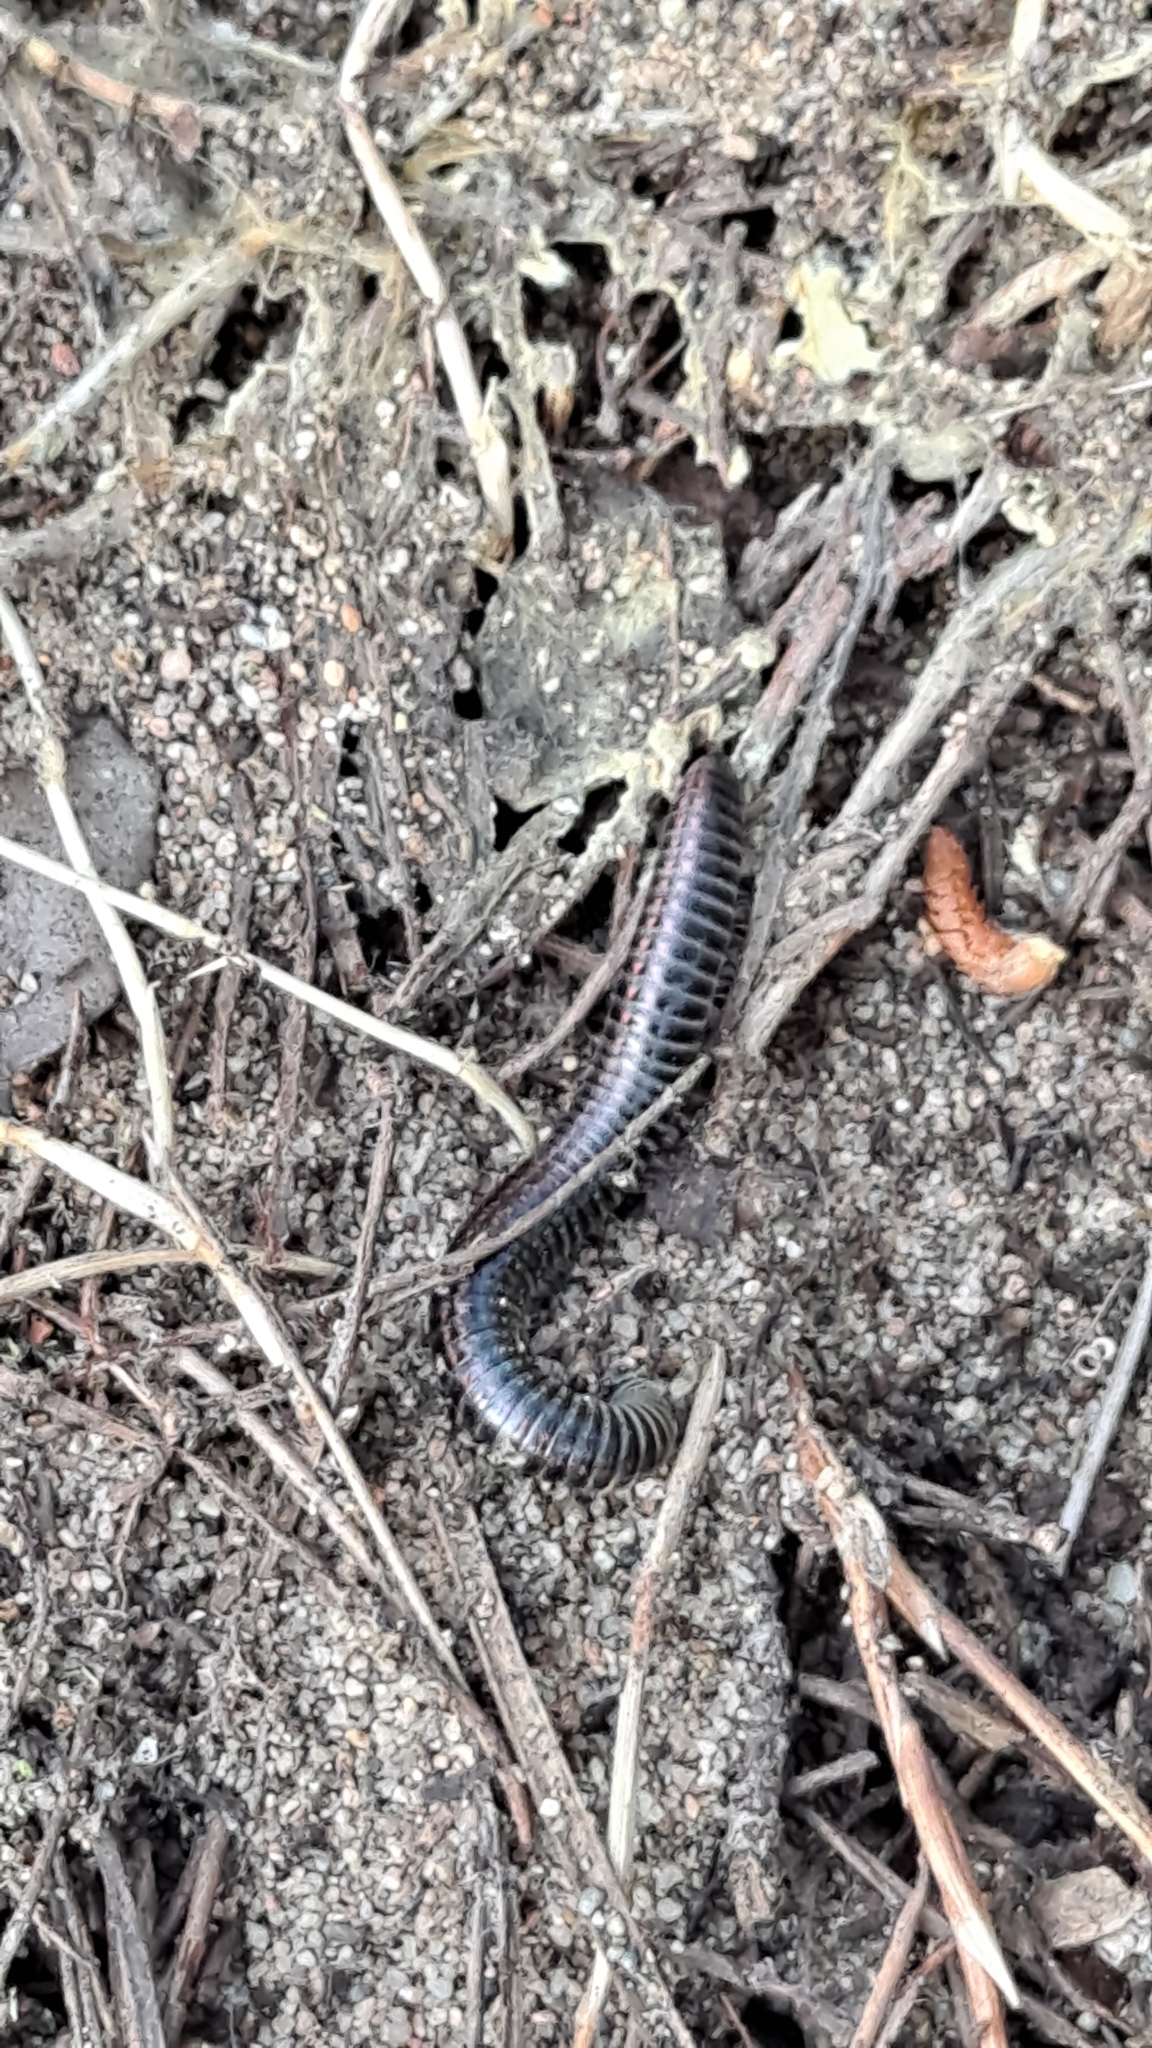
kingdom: Animalia
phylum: Arthropoda
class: Diplopoda
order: Julida
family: Julidae
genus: Ommatoiulus
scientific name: Ommatoiulus sabulosus
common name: Striped millipede
